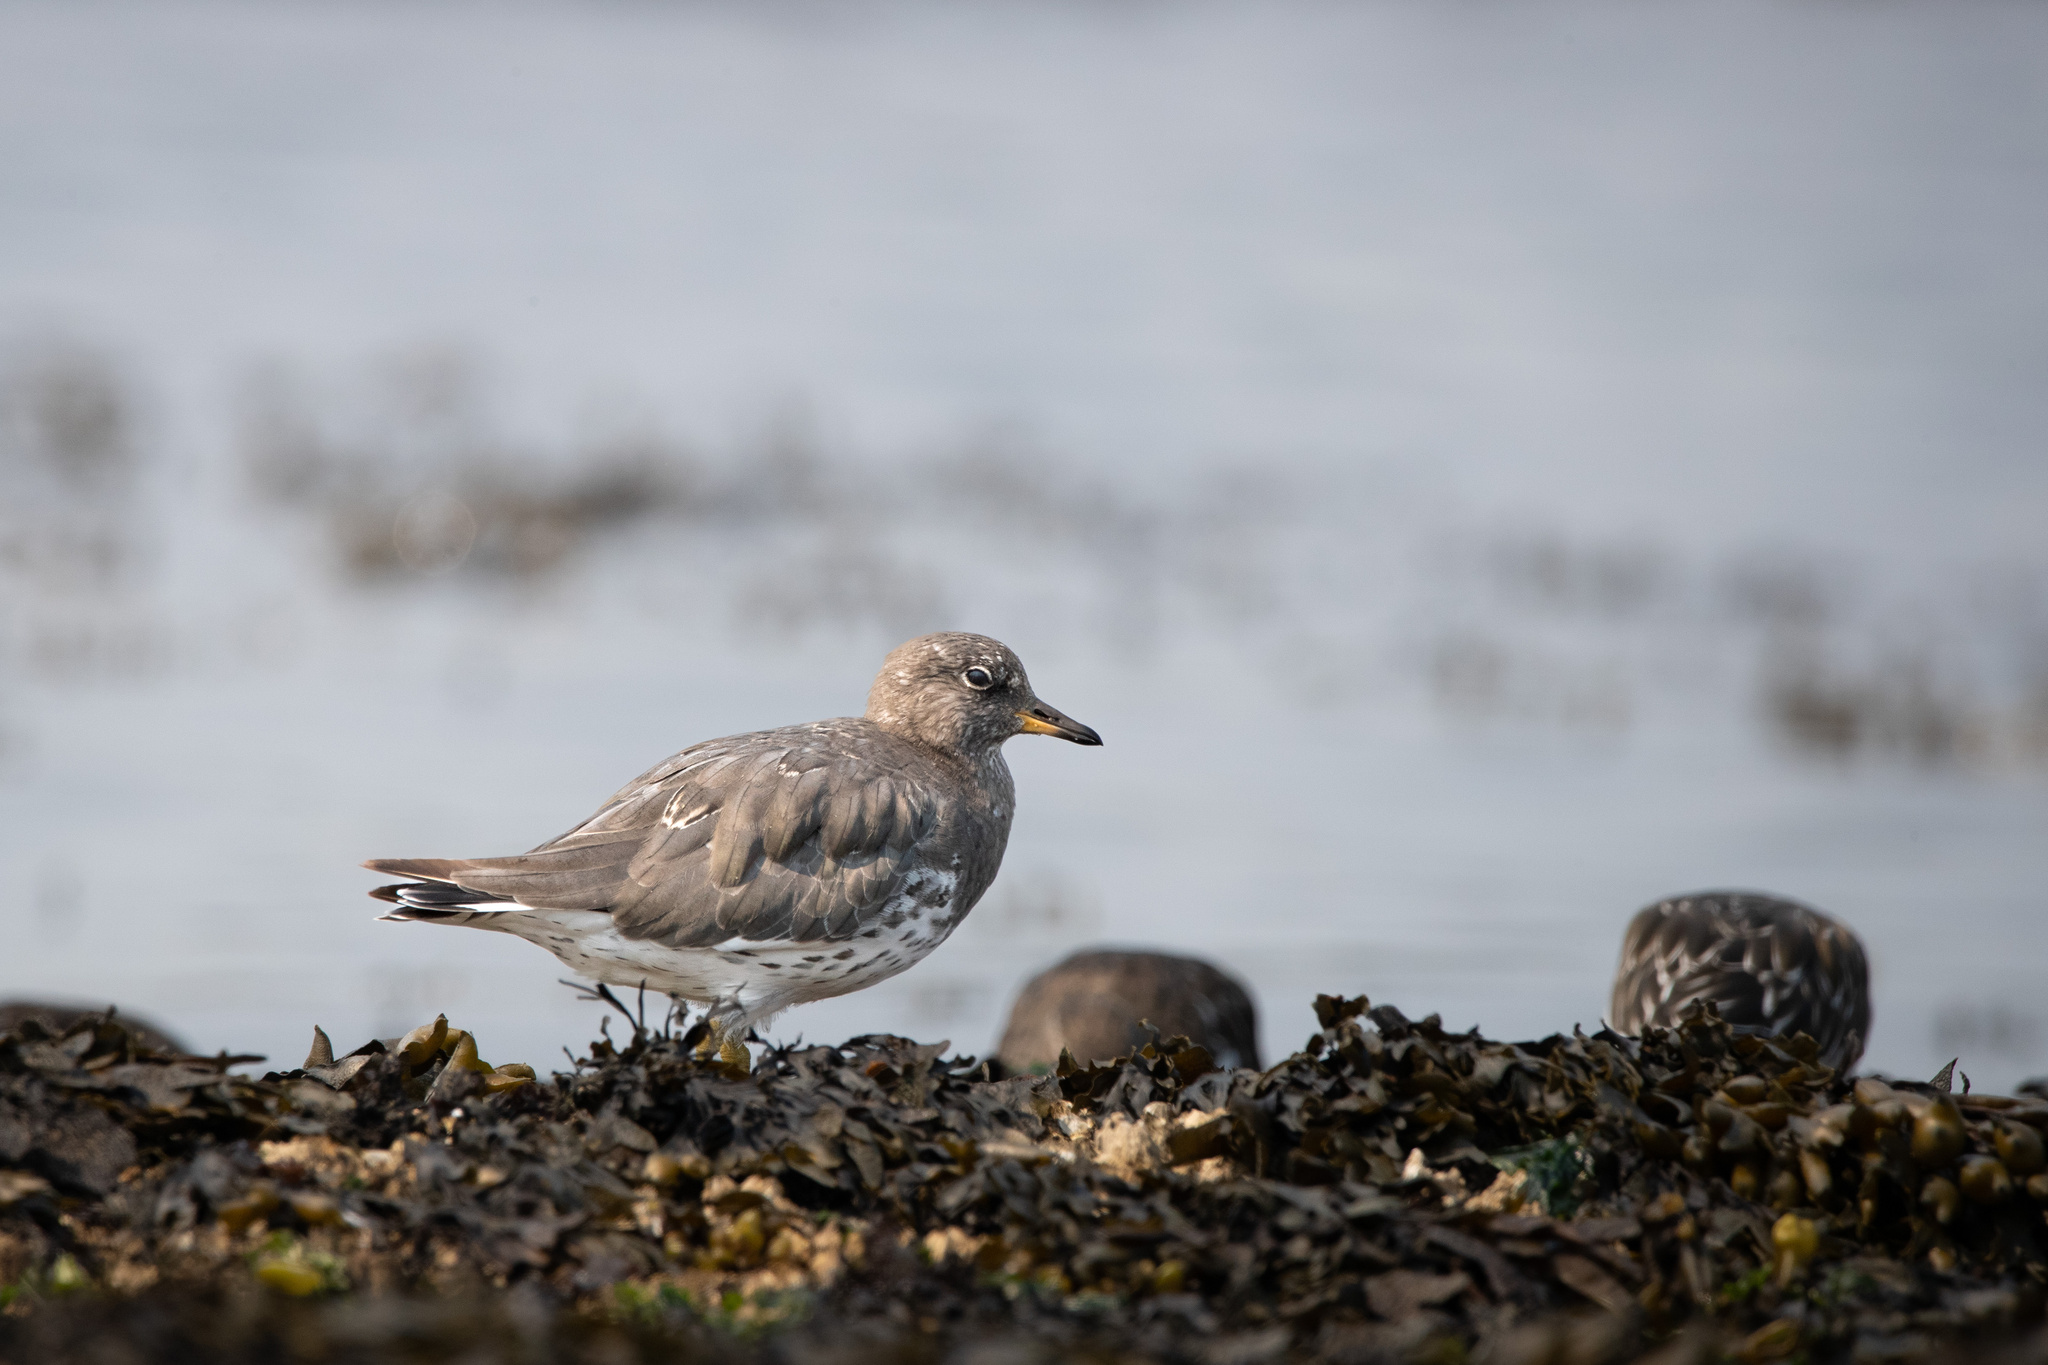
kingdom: Animalia
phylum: Chordata
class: Aves
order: Charadriiformes
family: Scolopacidae
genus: Calidris
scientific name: Calidris virgata
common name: Surfbird
